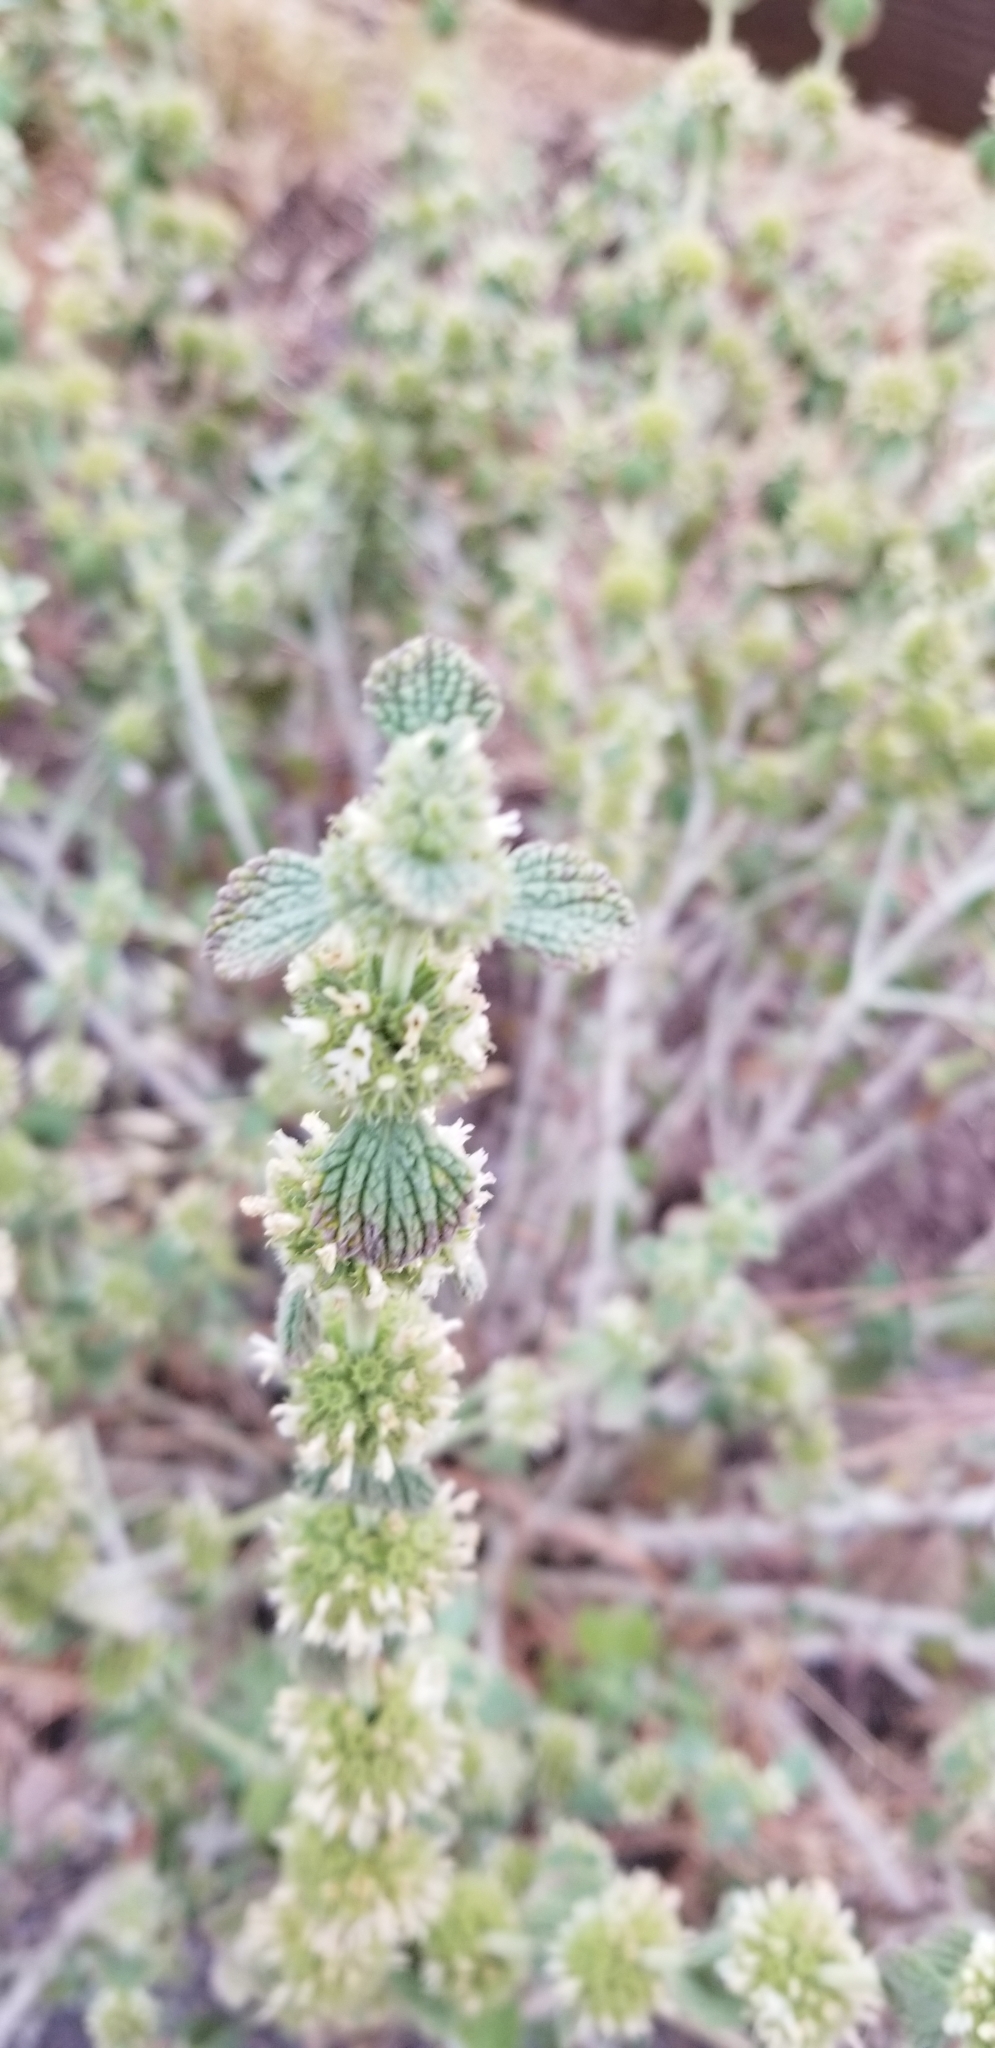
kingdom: Plantae
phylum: Tracheophyta
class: Magnoliopsida
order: Lamiales
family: Lamiaceae
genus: Marrubium
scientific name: Marrubium vulgare
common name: Horehound
